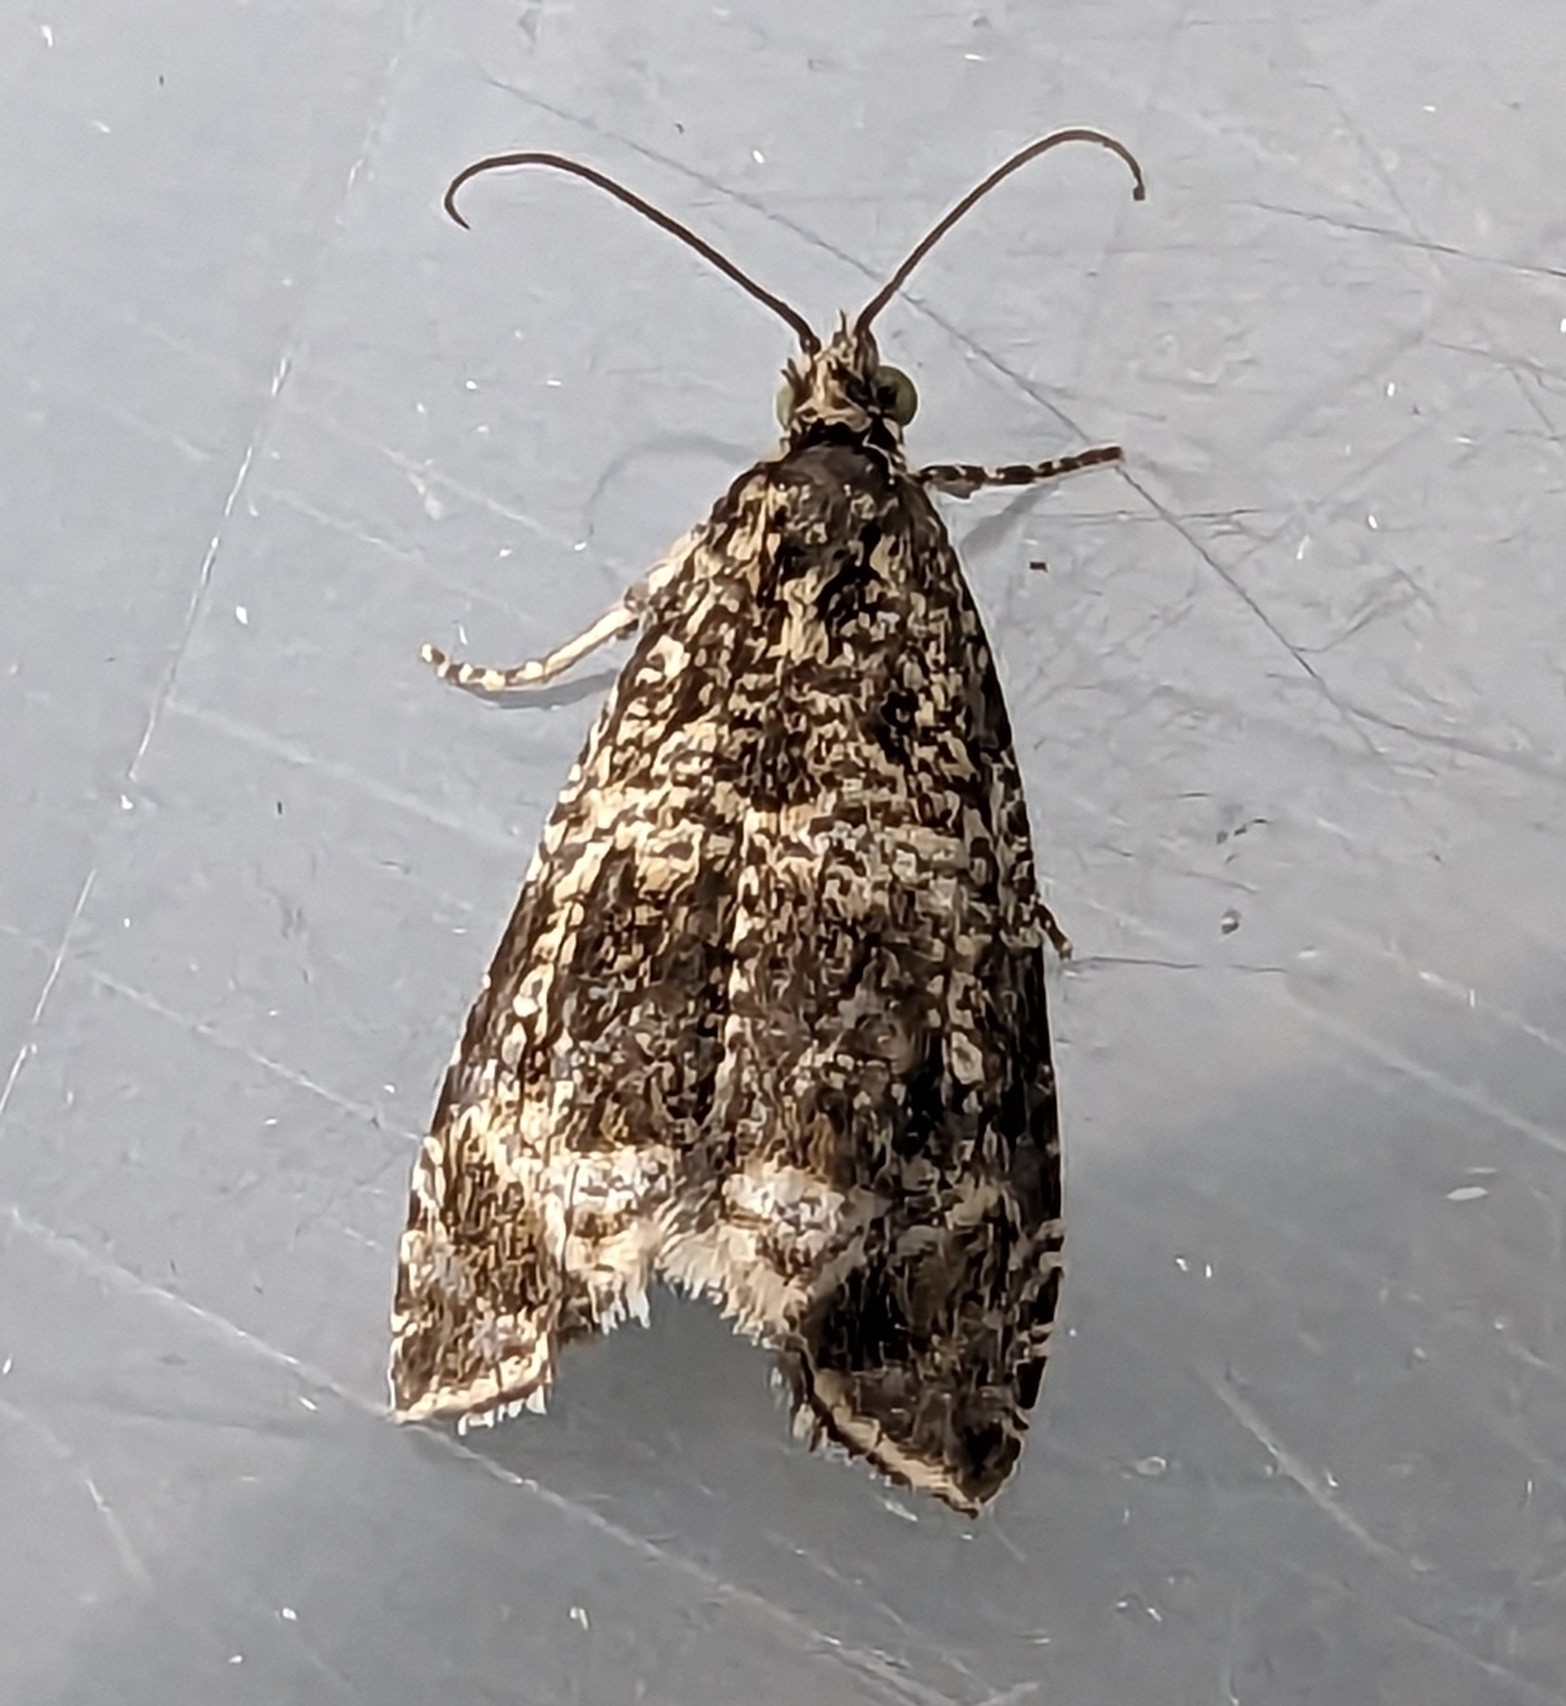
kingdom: Animalia
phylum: Arthropoda
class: Insecta
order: Lepidoptera
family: Tortricidae
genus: Syricoris
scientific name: Syricoris lacunana
